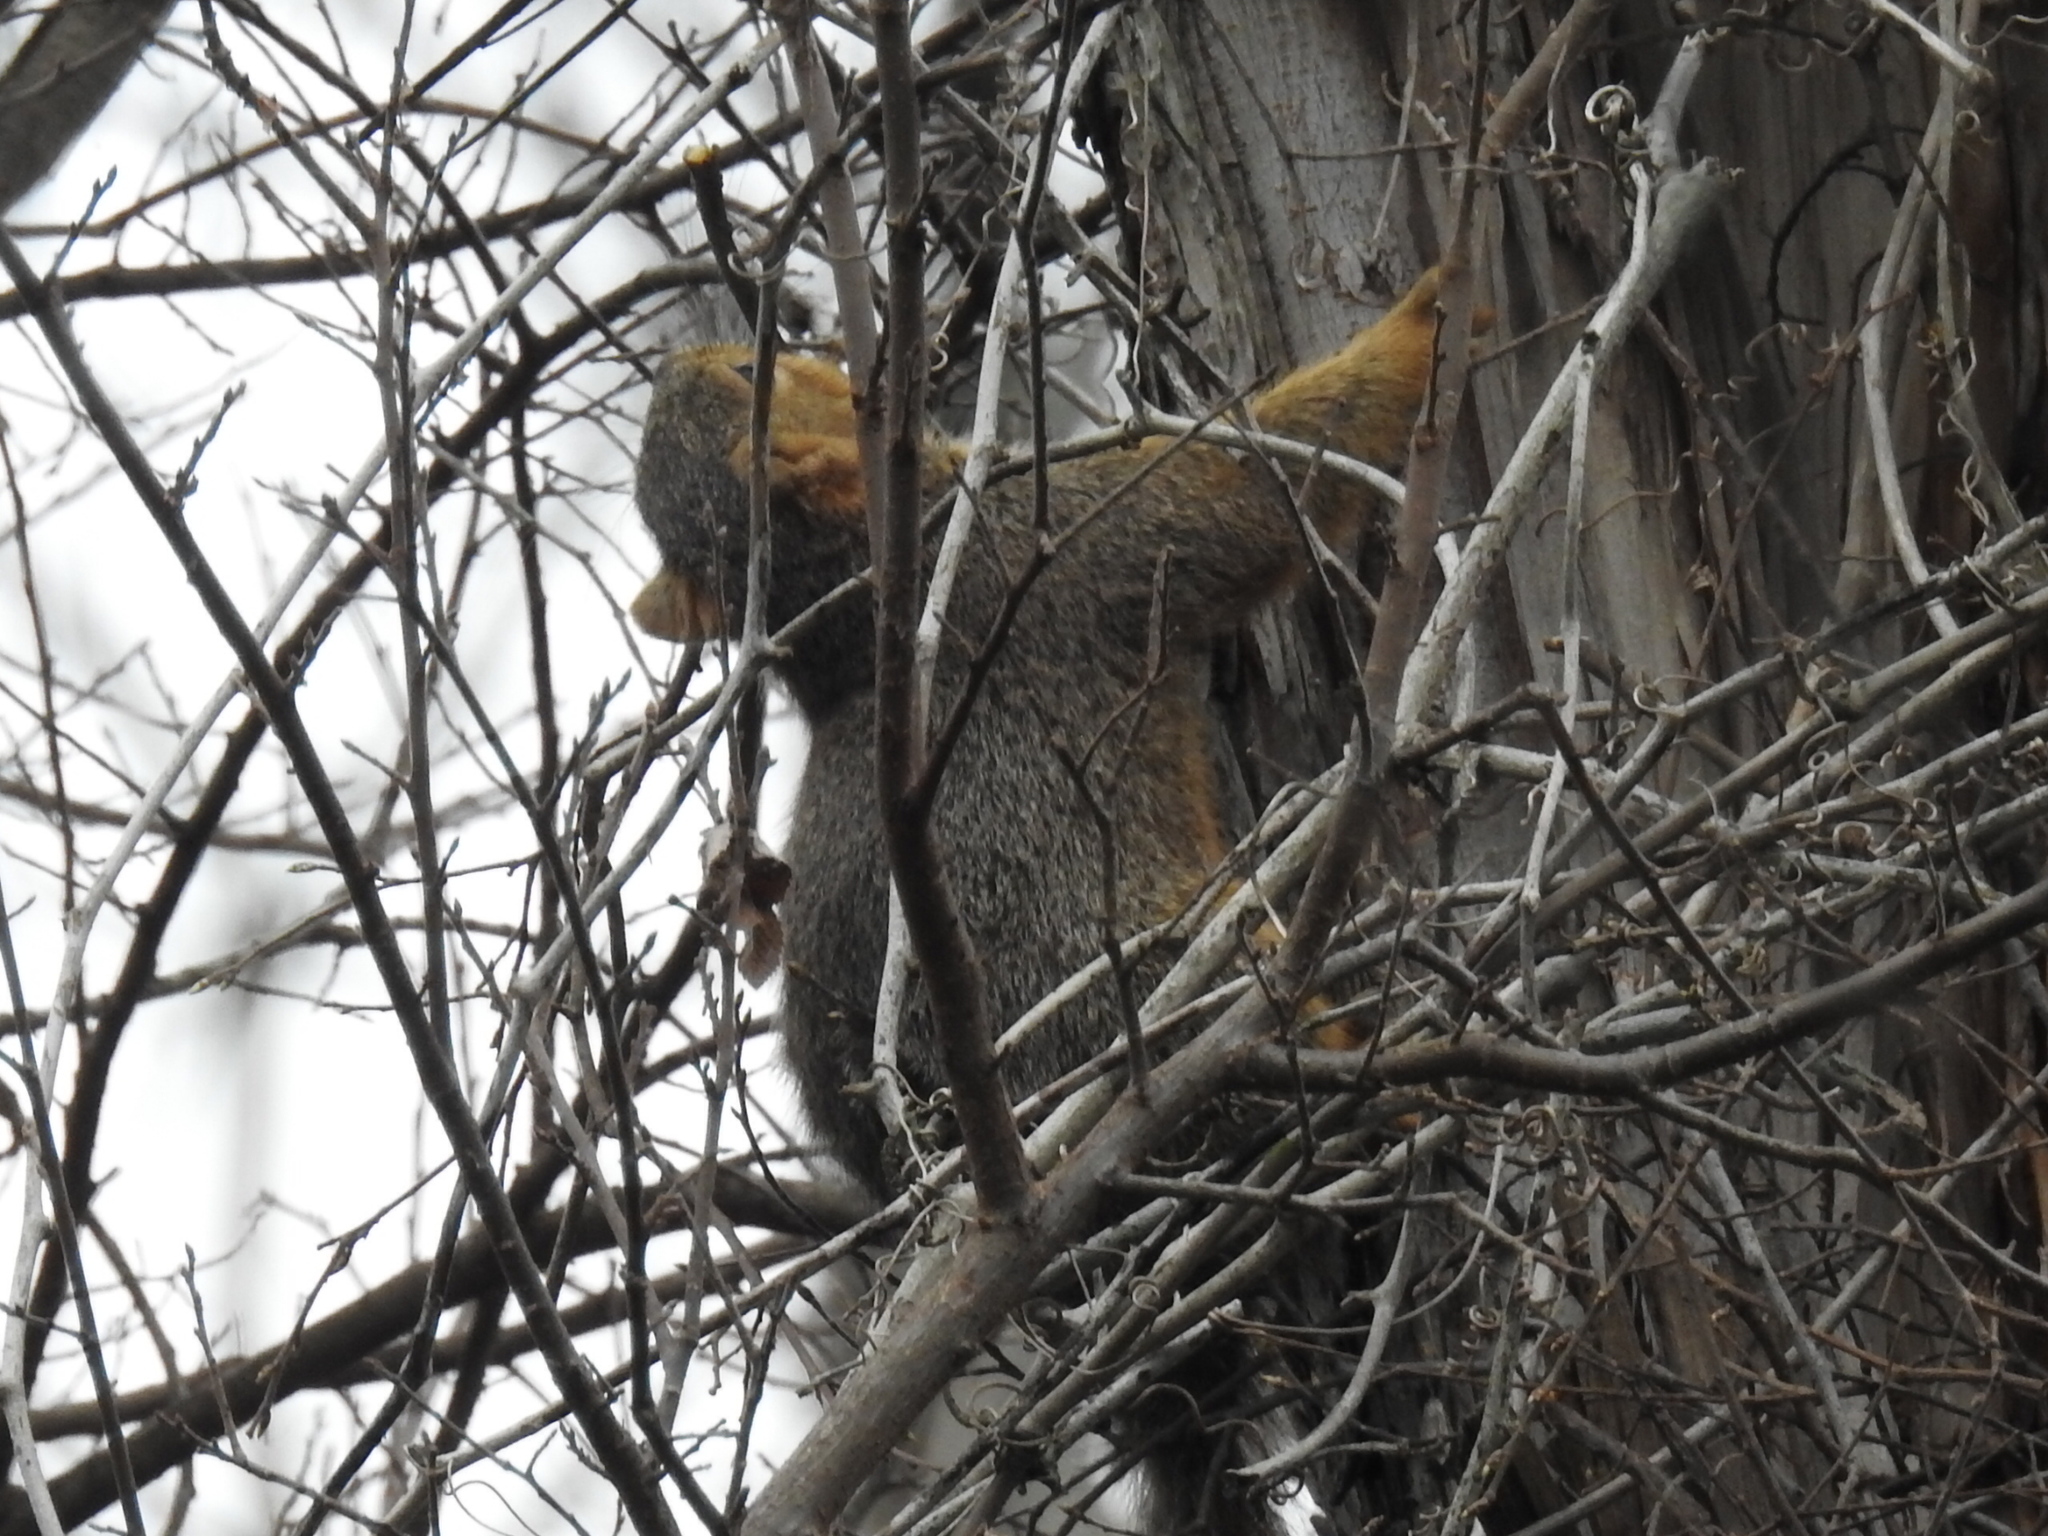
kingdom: Animalia
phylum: Chordata
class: Mammalia
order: Rodentia
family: Sciuridae
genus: Sciurus
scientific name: Sciurus niger
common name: Fox squirrel
